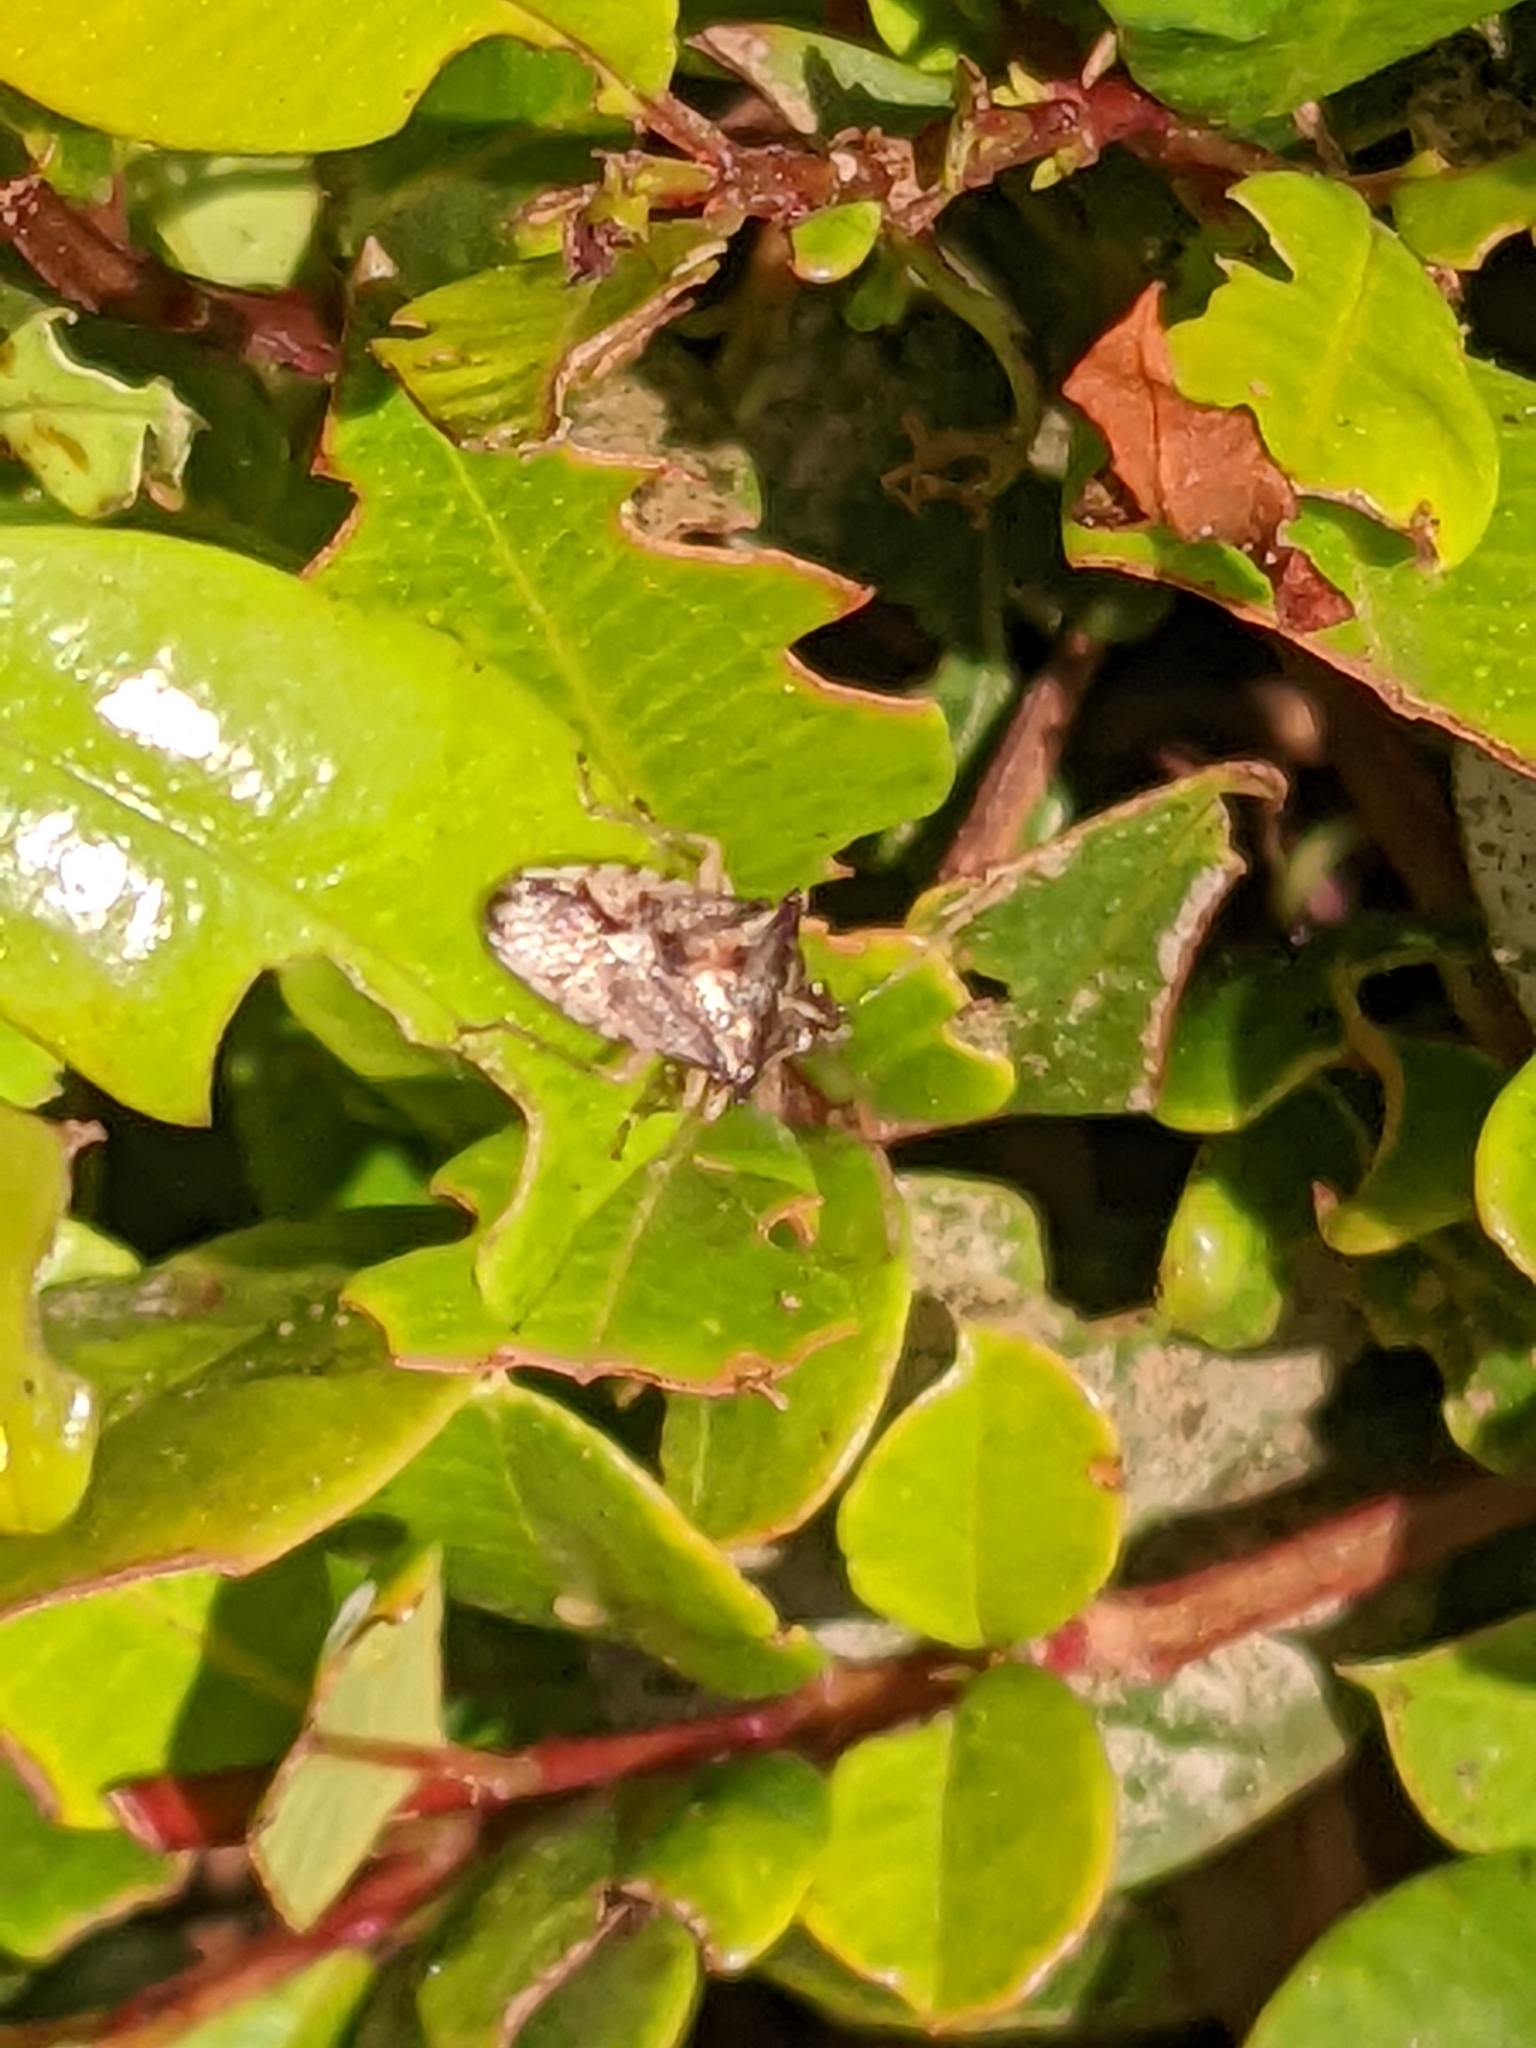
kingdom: Animalia
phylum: Arthropoda
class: Insecta
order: Hemiptera
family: Pentatomidae
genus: Oechalia
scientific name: Oechalia schellenbergii
